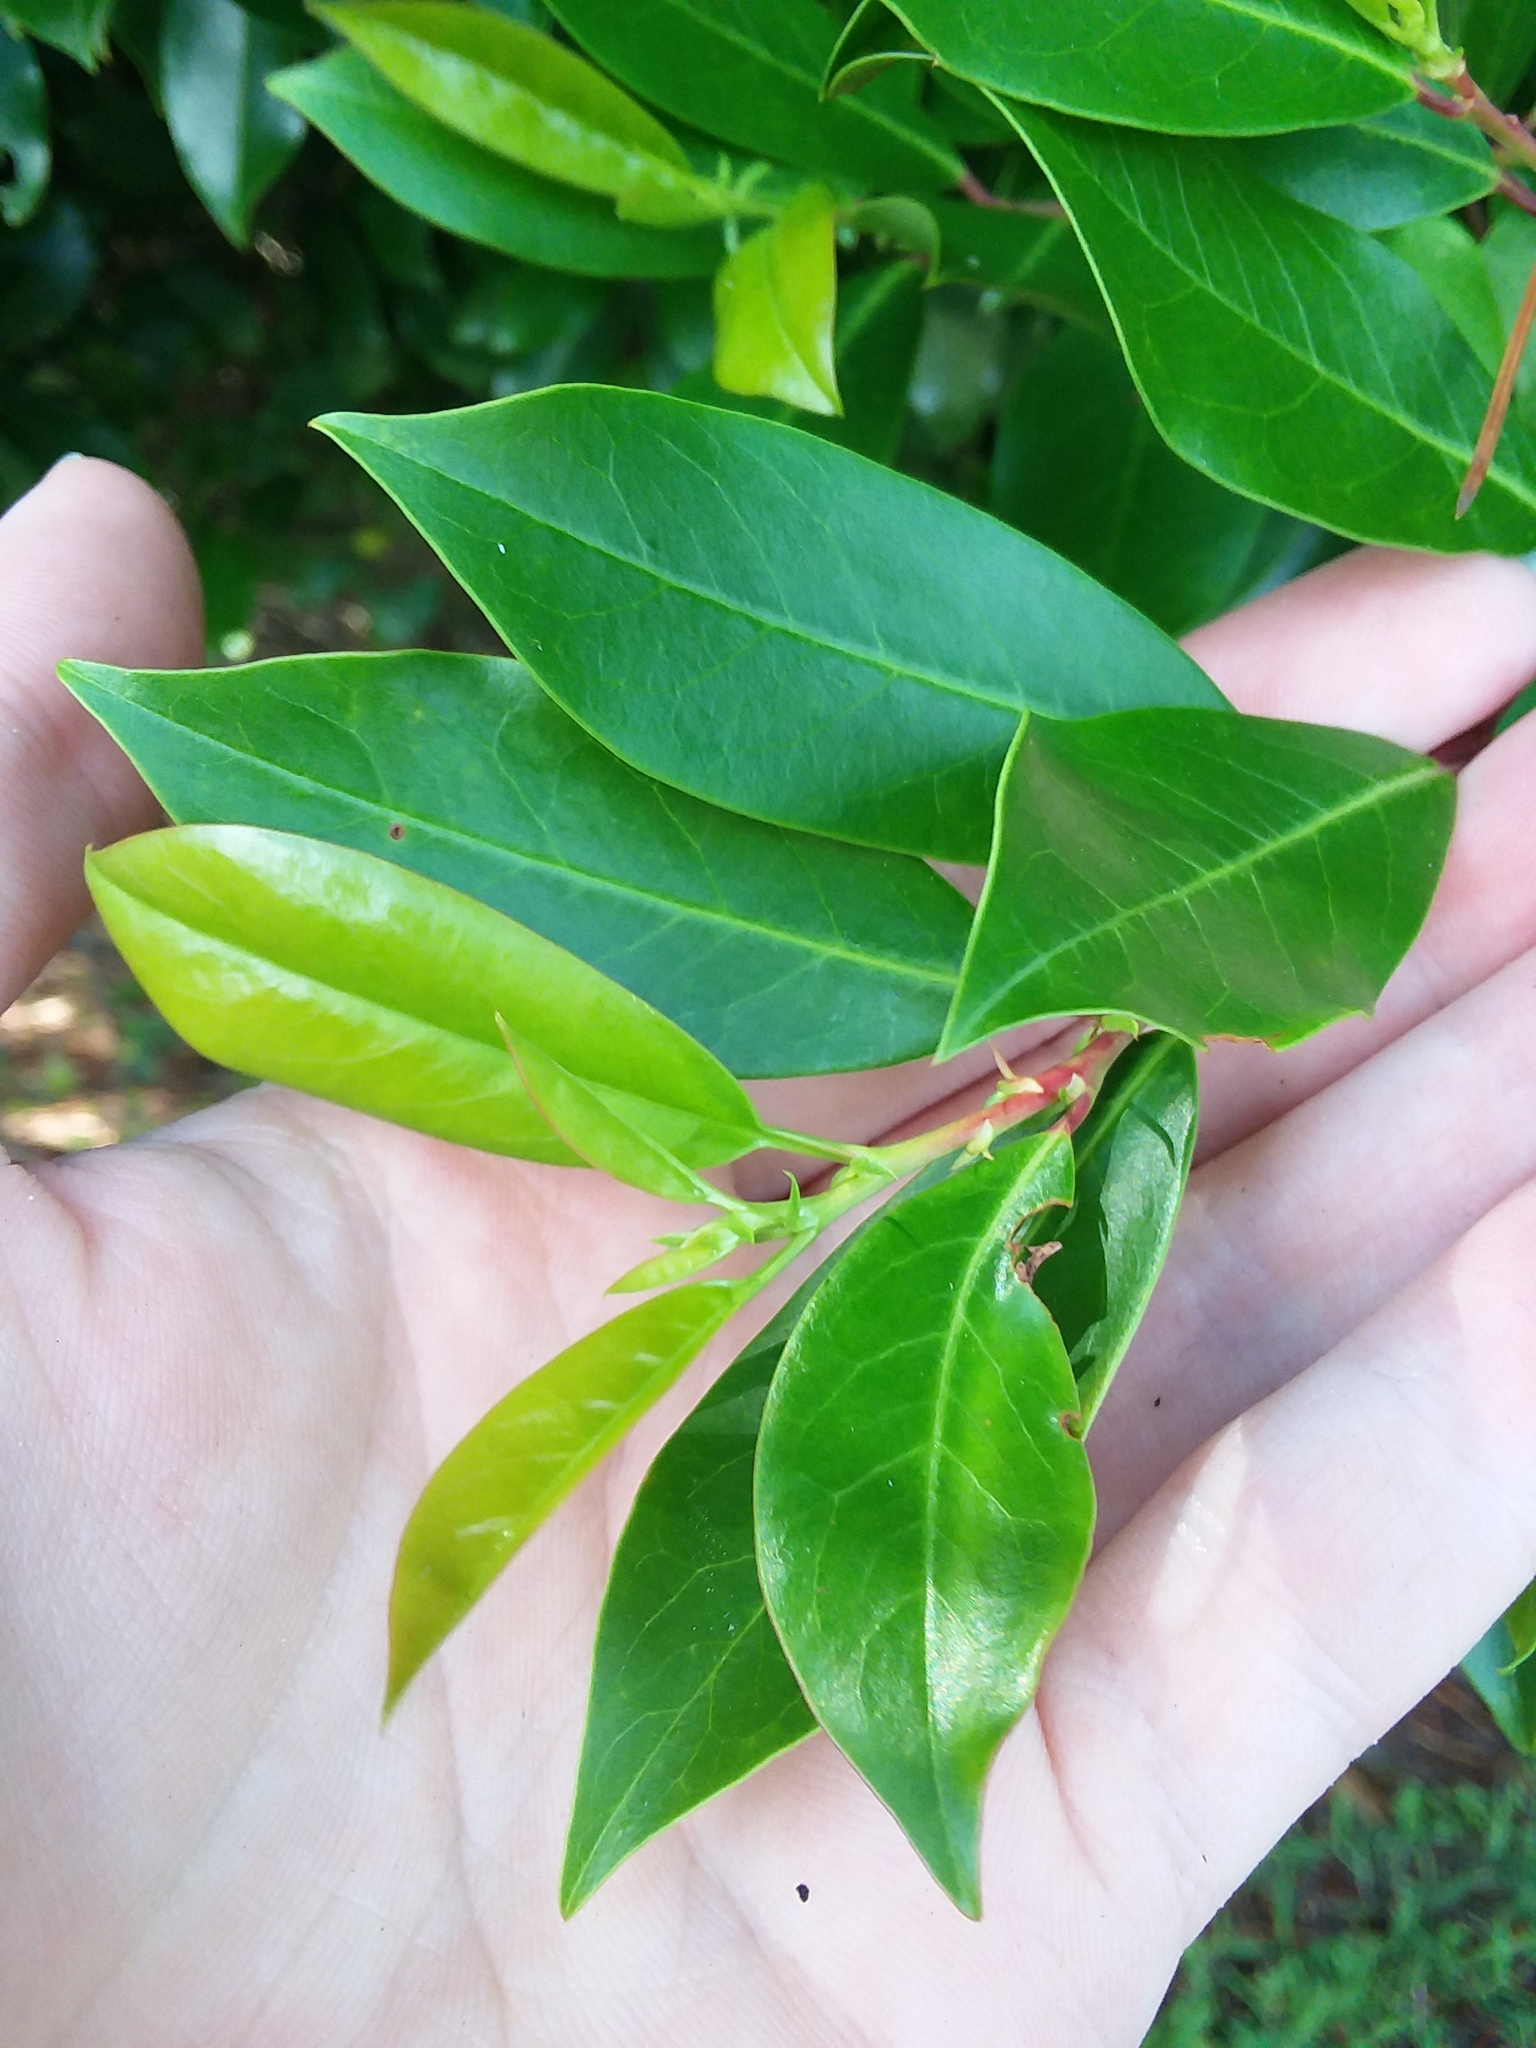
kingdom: Plantae
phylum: Tracheophyta
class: Magnoliopsida
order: Rosales
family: Rosaceae
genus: Prunus
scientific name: Prunus caroliniana
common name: Carolina laurel cherry
